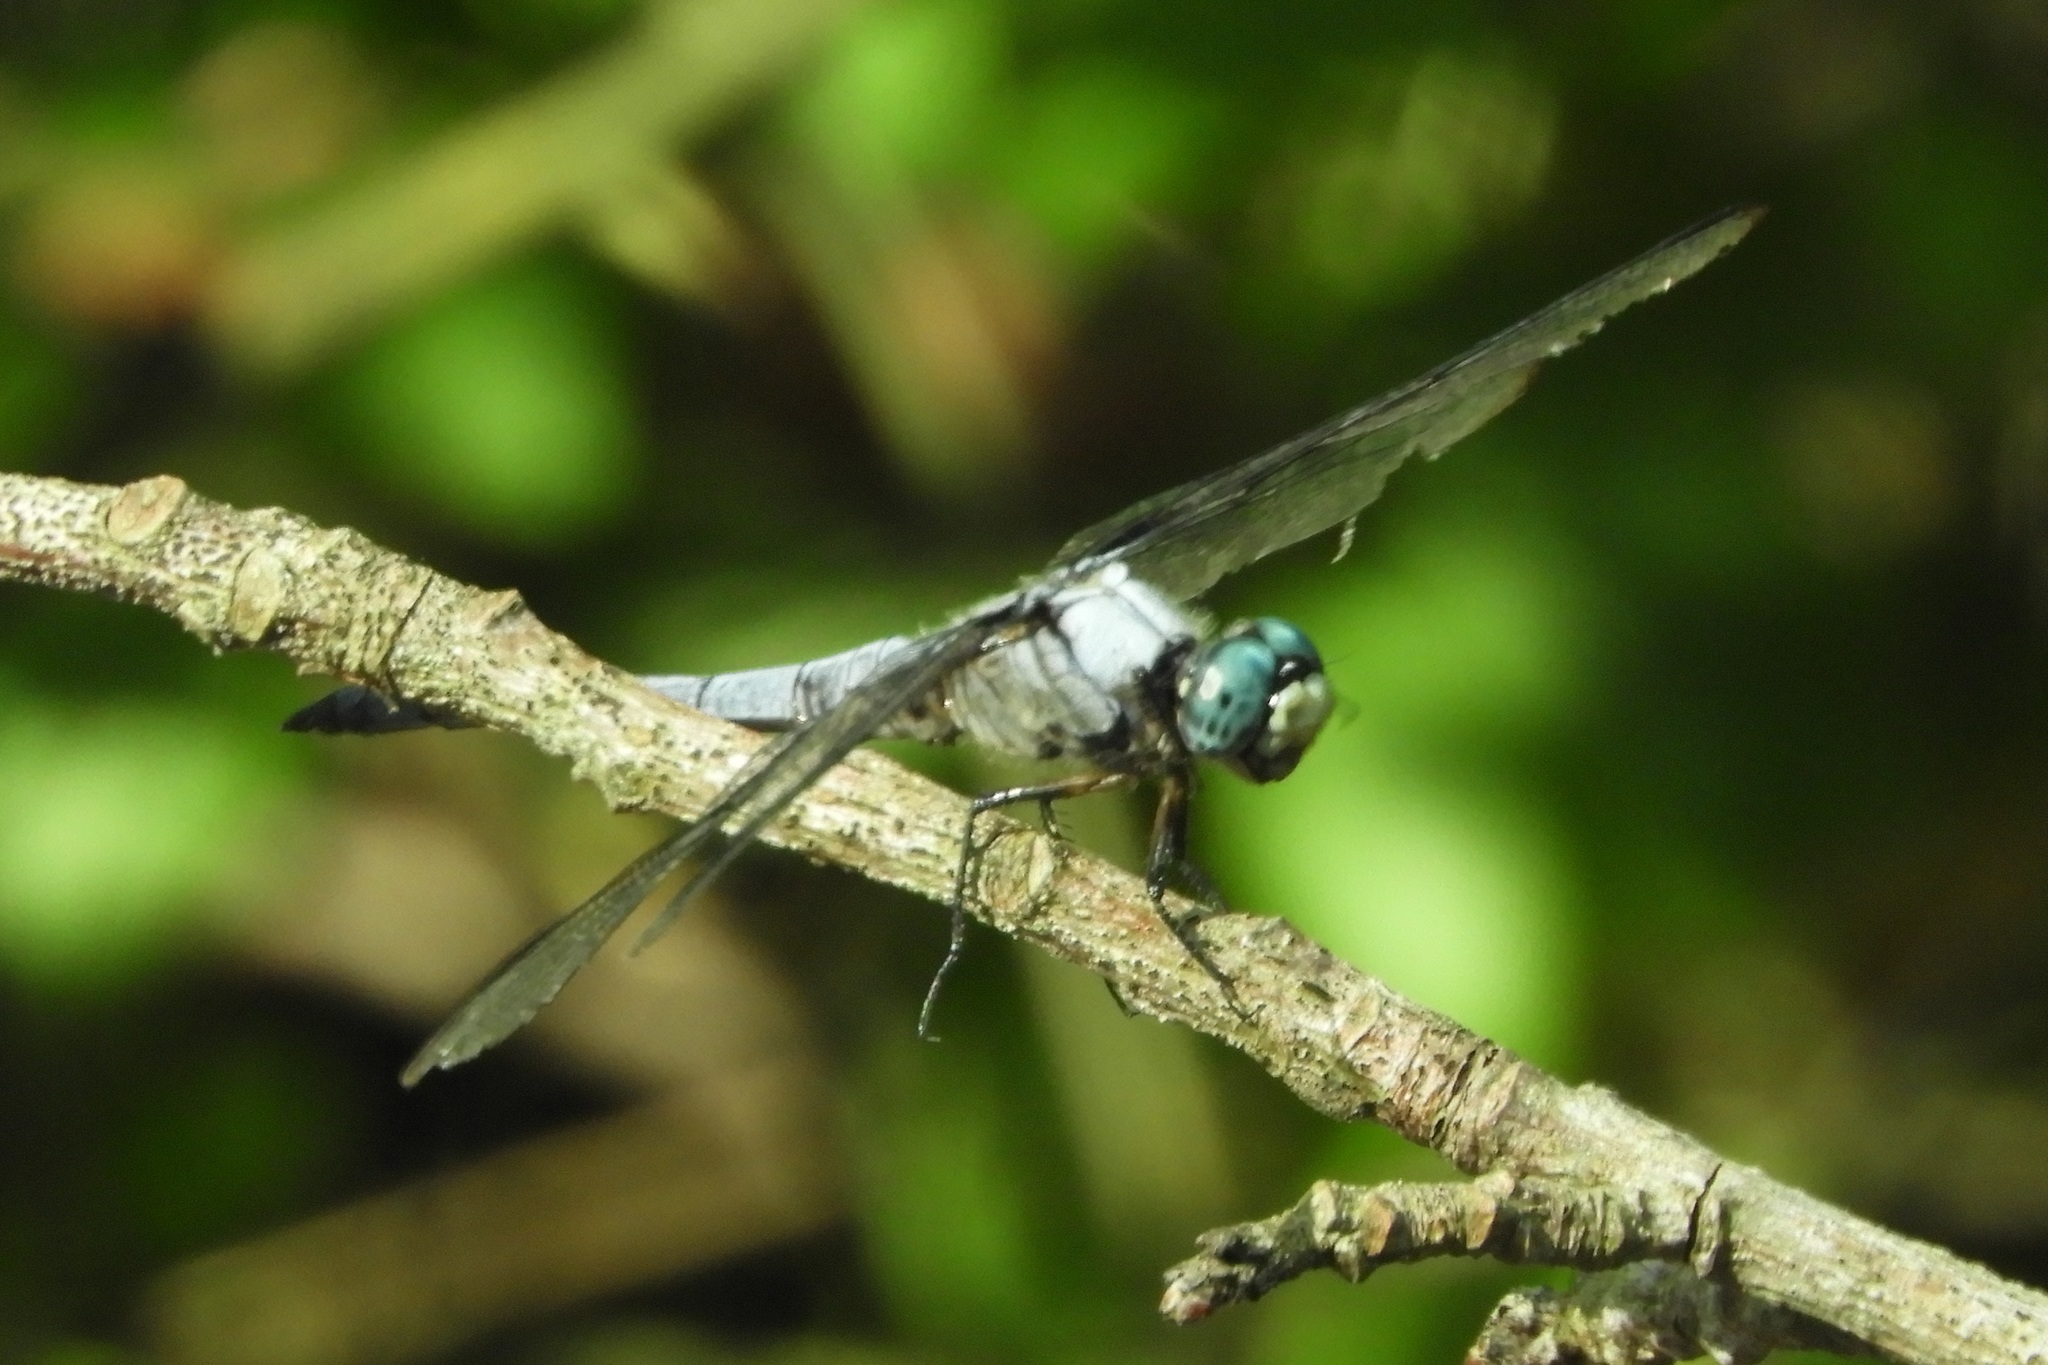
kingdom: Animalia
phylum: Arthropoda
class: Insecta
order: Odonata
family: Libellulidae
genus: Libellula
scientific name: Libellula vibrans
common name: Great blue skimmer
